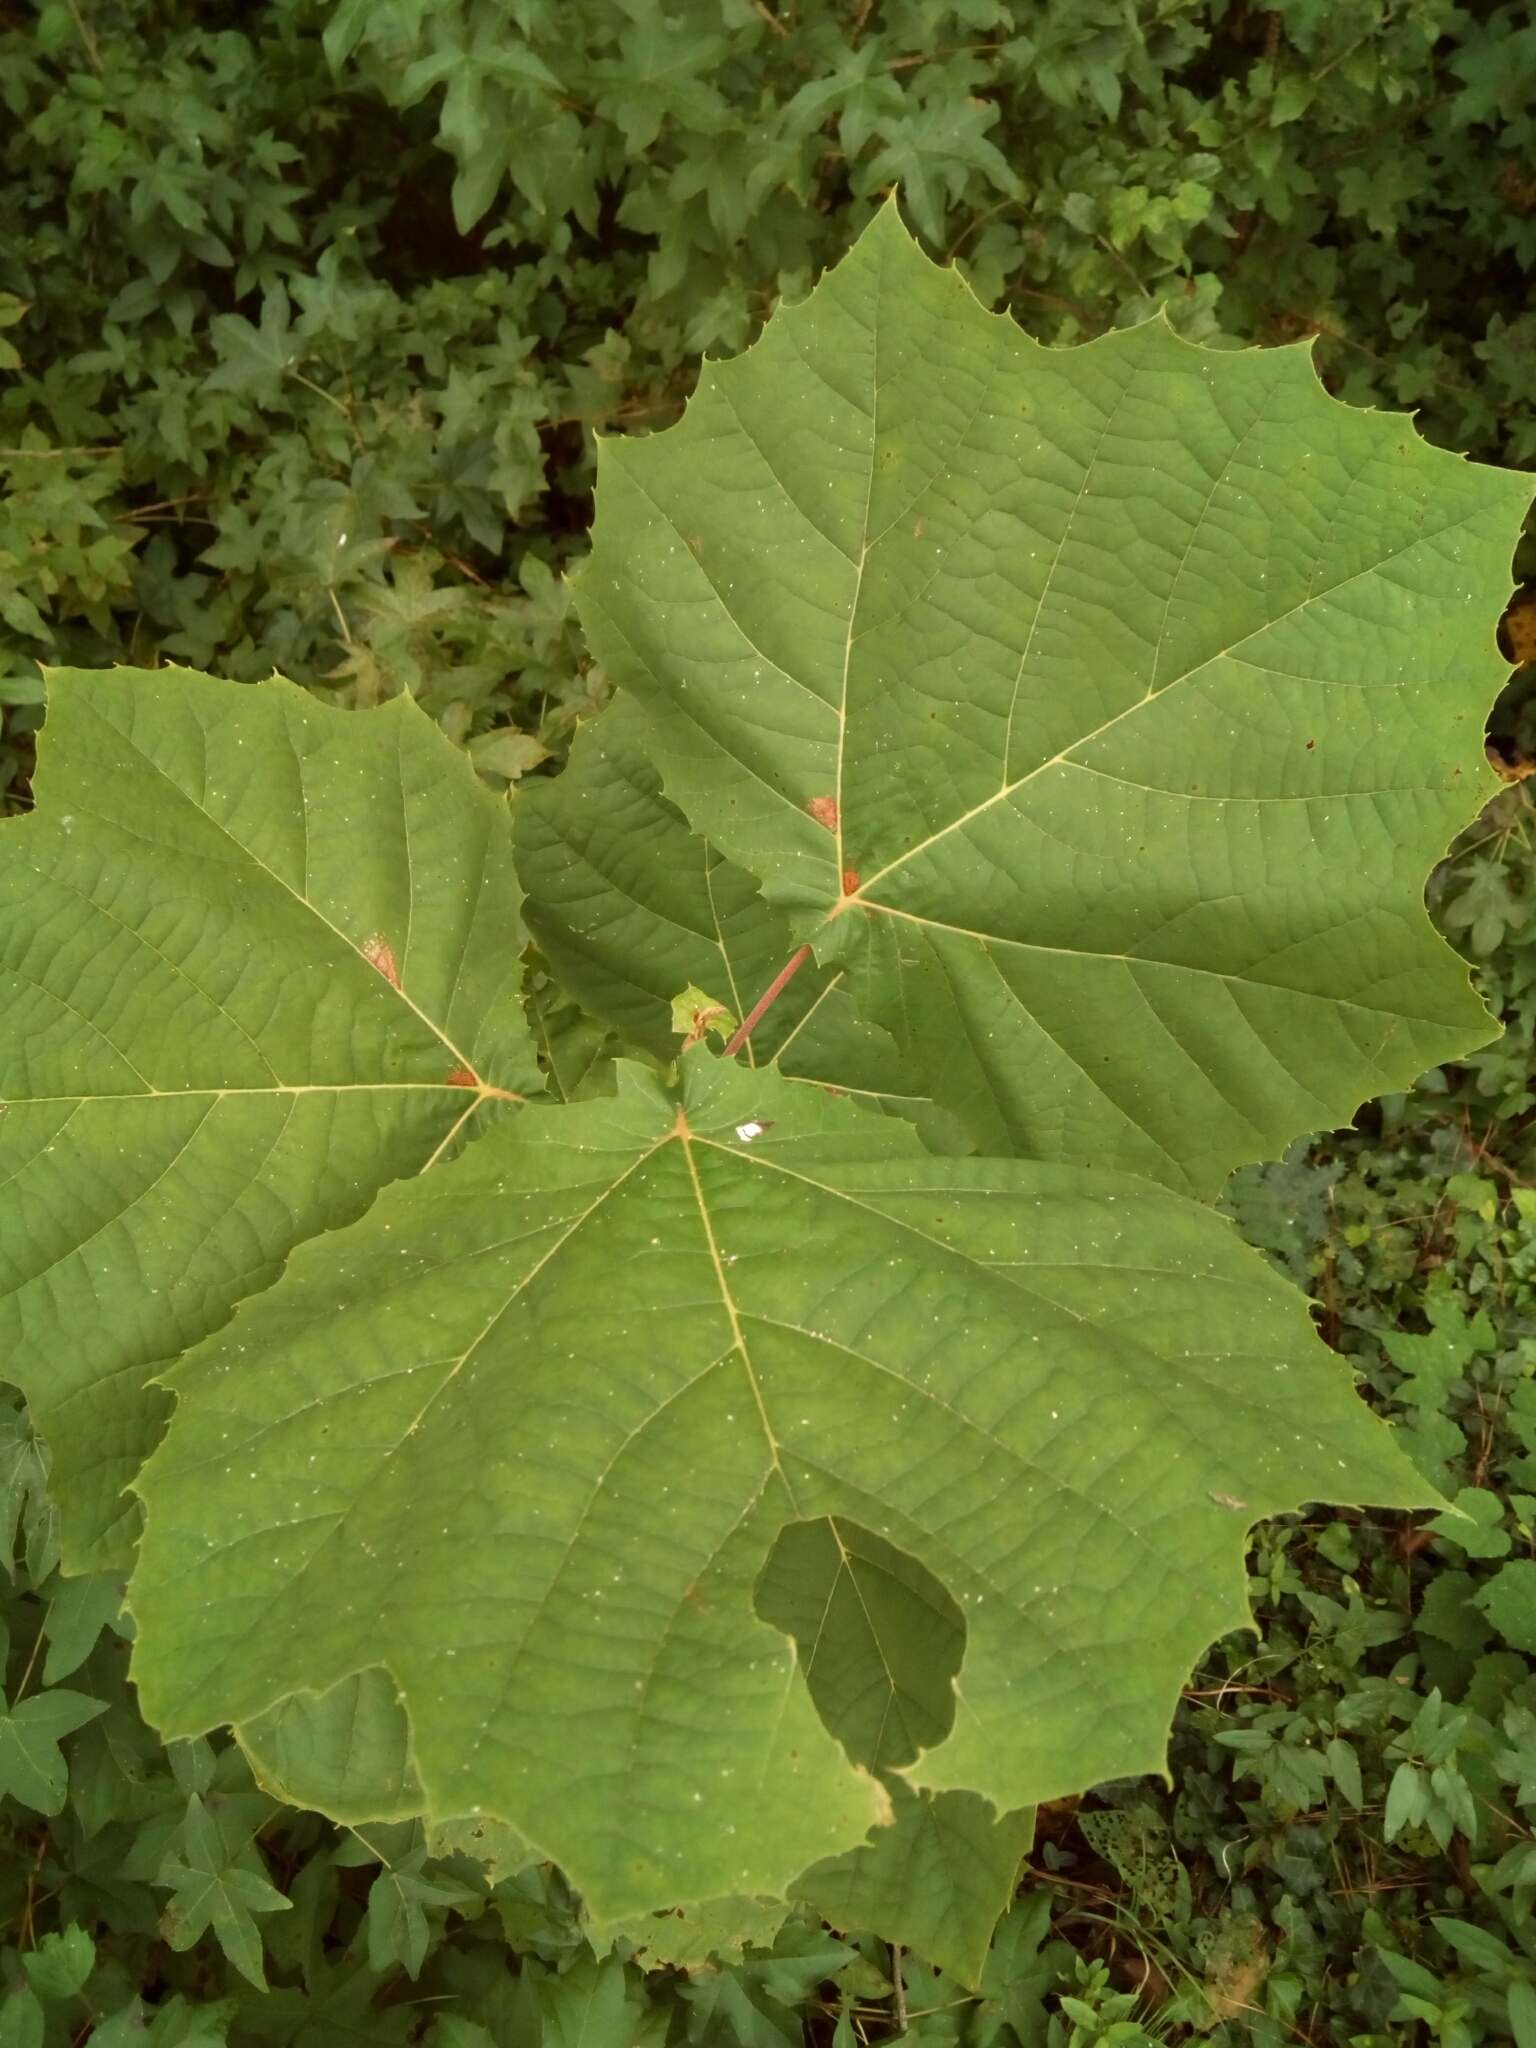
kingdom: Plantae
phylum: Tracheophyta
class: Magnoliopsida
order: Proteales
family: Platanaceae
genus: Platanus
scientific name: Platanus occidentalis
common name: American sycamore
